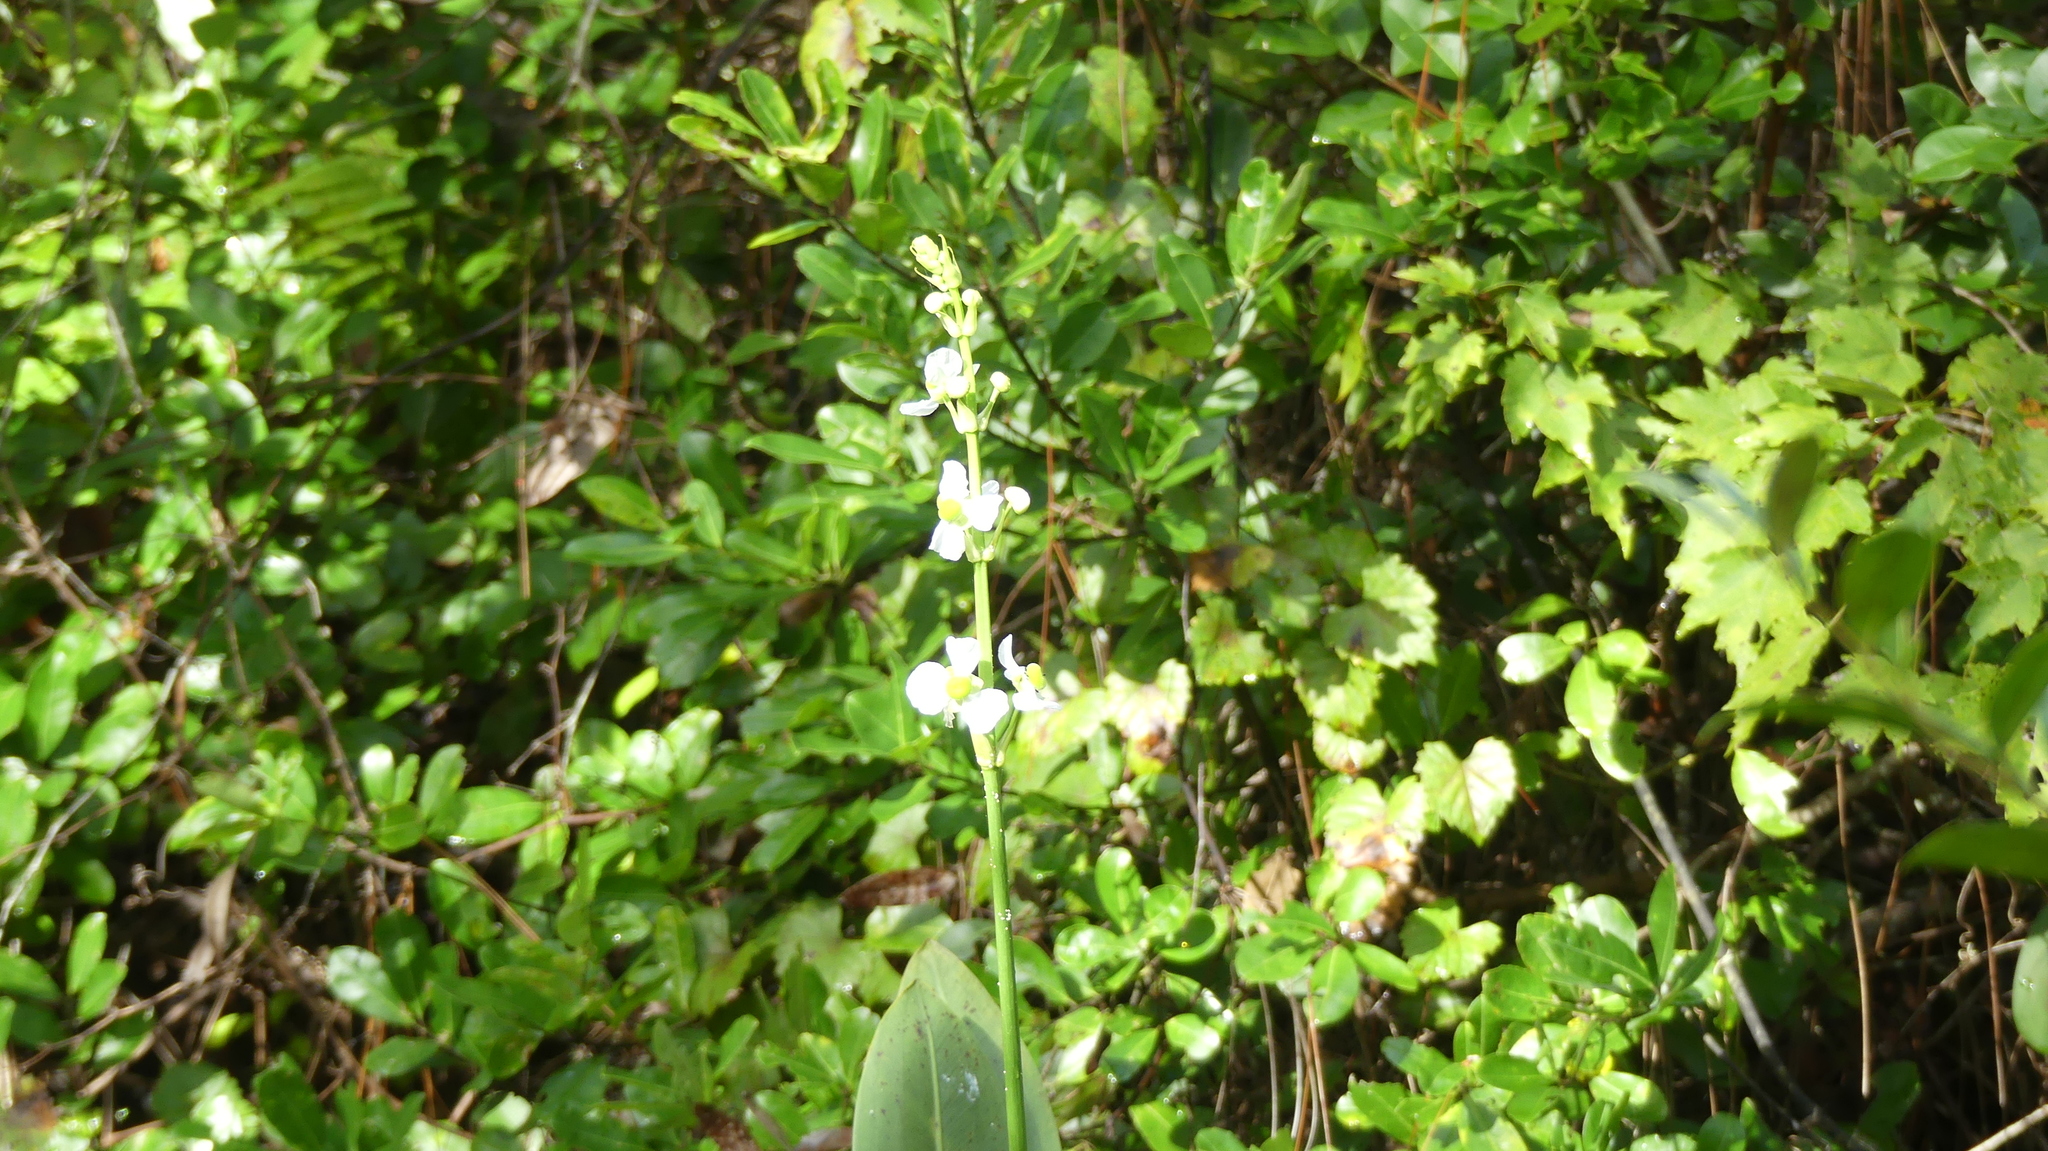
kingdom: Plantae
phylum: Tracheophyta
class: Liliopsida
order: Alismatales
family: Alismataceae
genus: Sagittaria
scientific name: Sagittaria lancifolia
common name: Lance-leaf arrowhead
